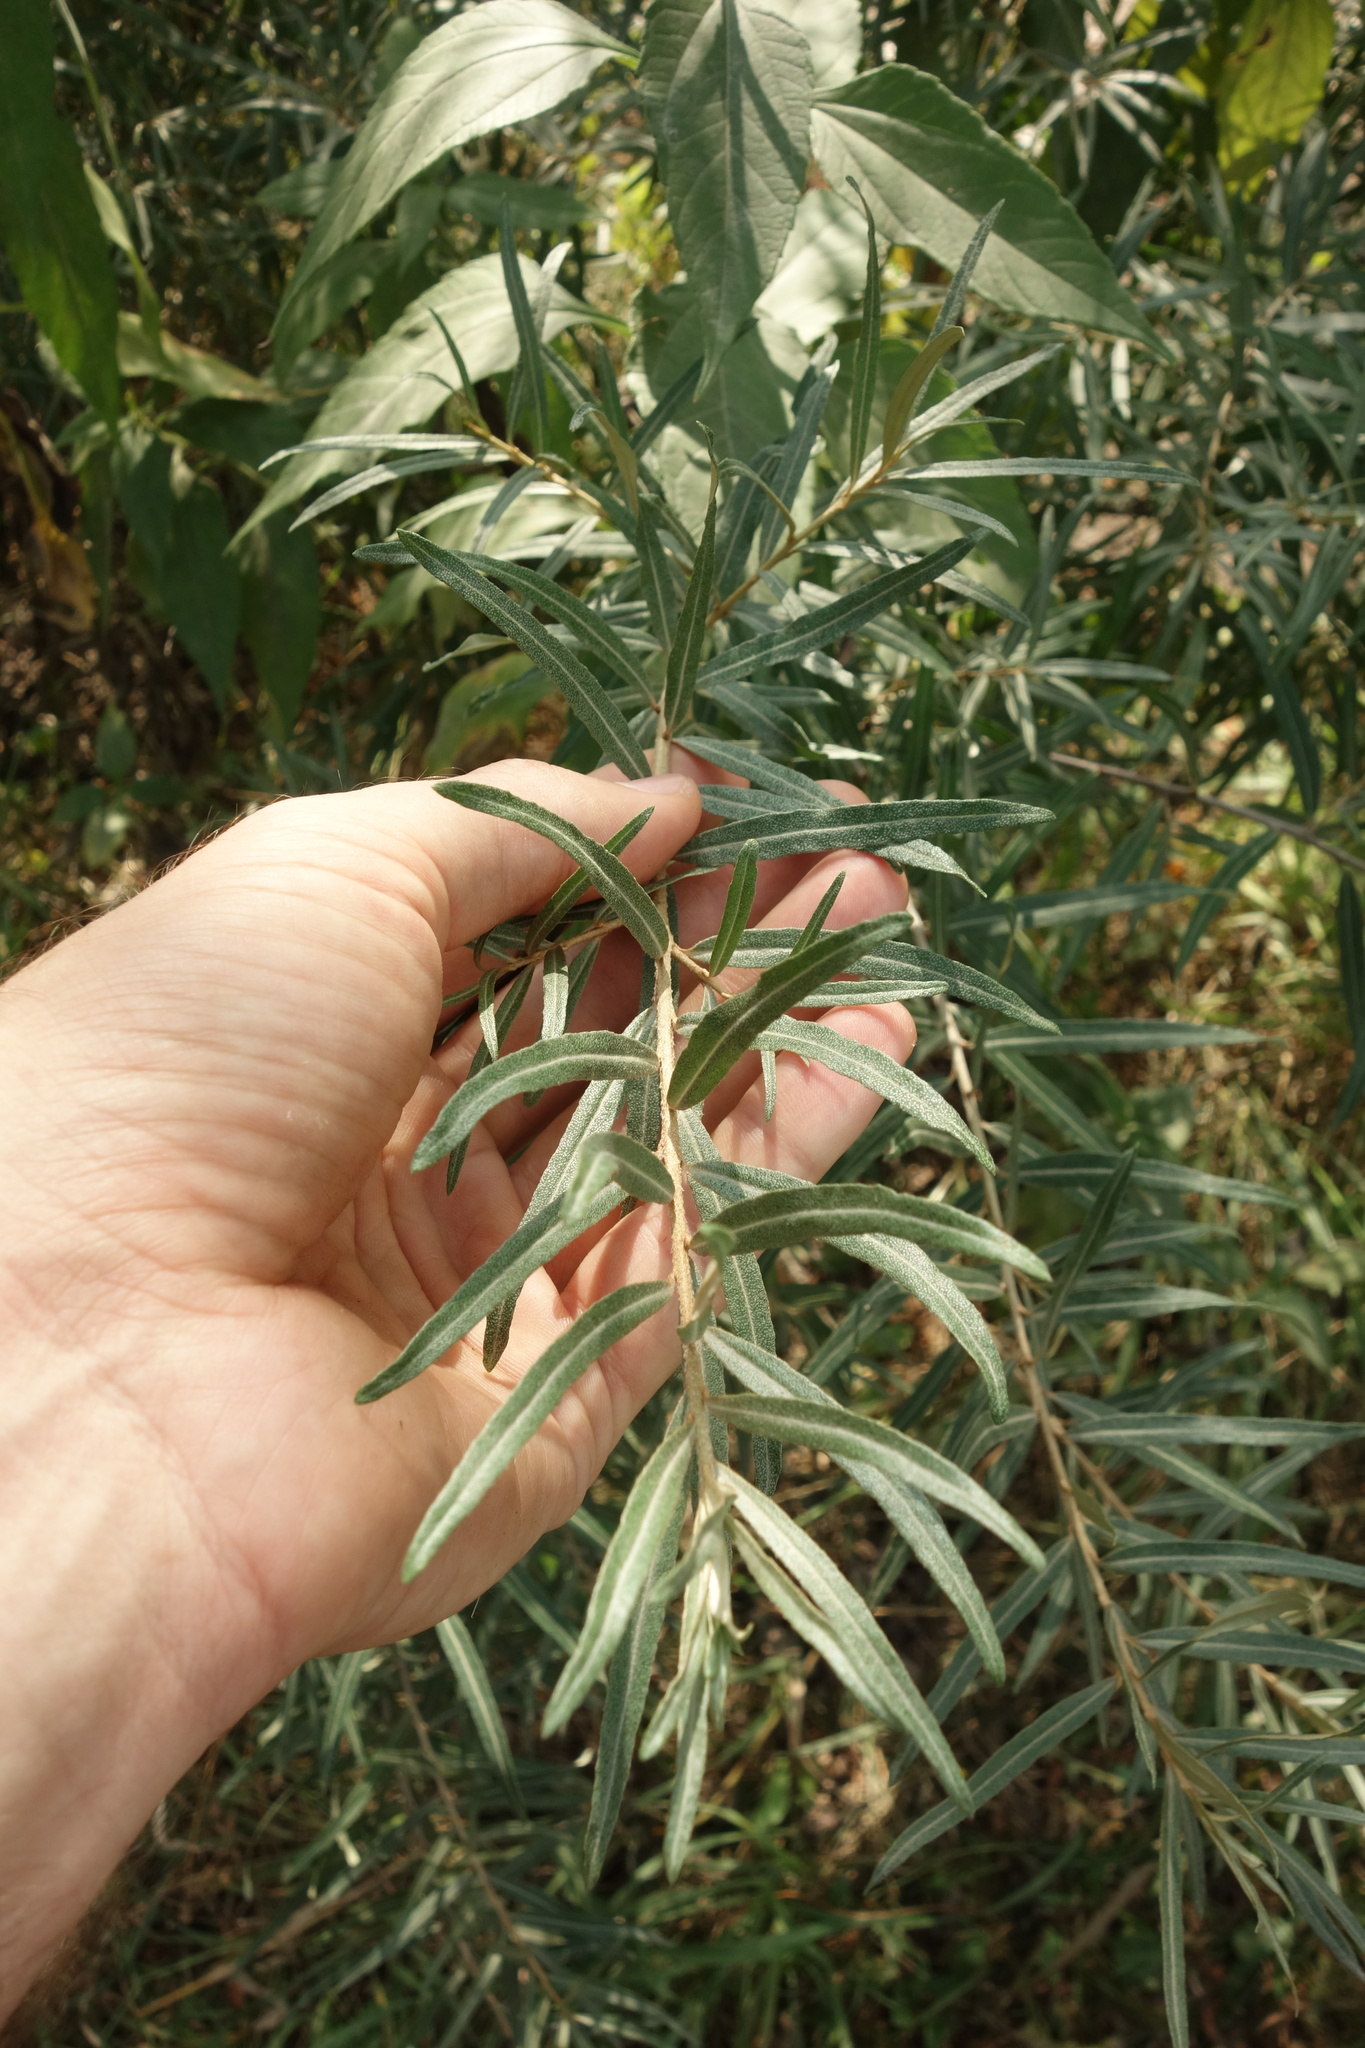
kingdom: Plantae
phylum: Tracheophyta
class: Magnoliopsida
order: Rosales
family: Elaeagnaceae
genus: Hippophae
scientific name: Hippophae rhamnoides
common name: Sea-buckthorn
